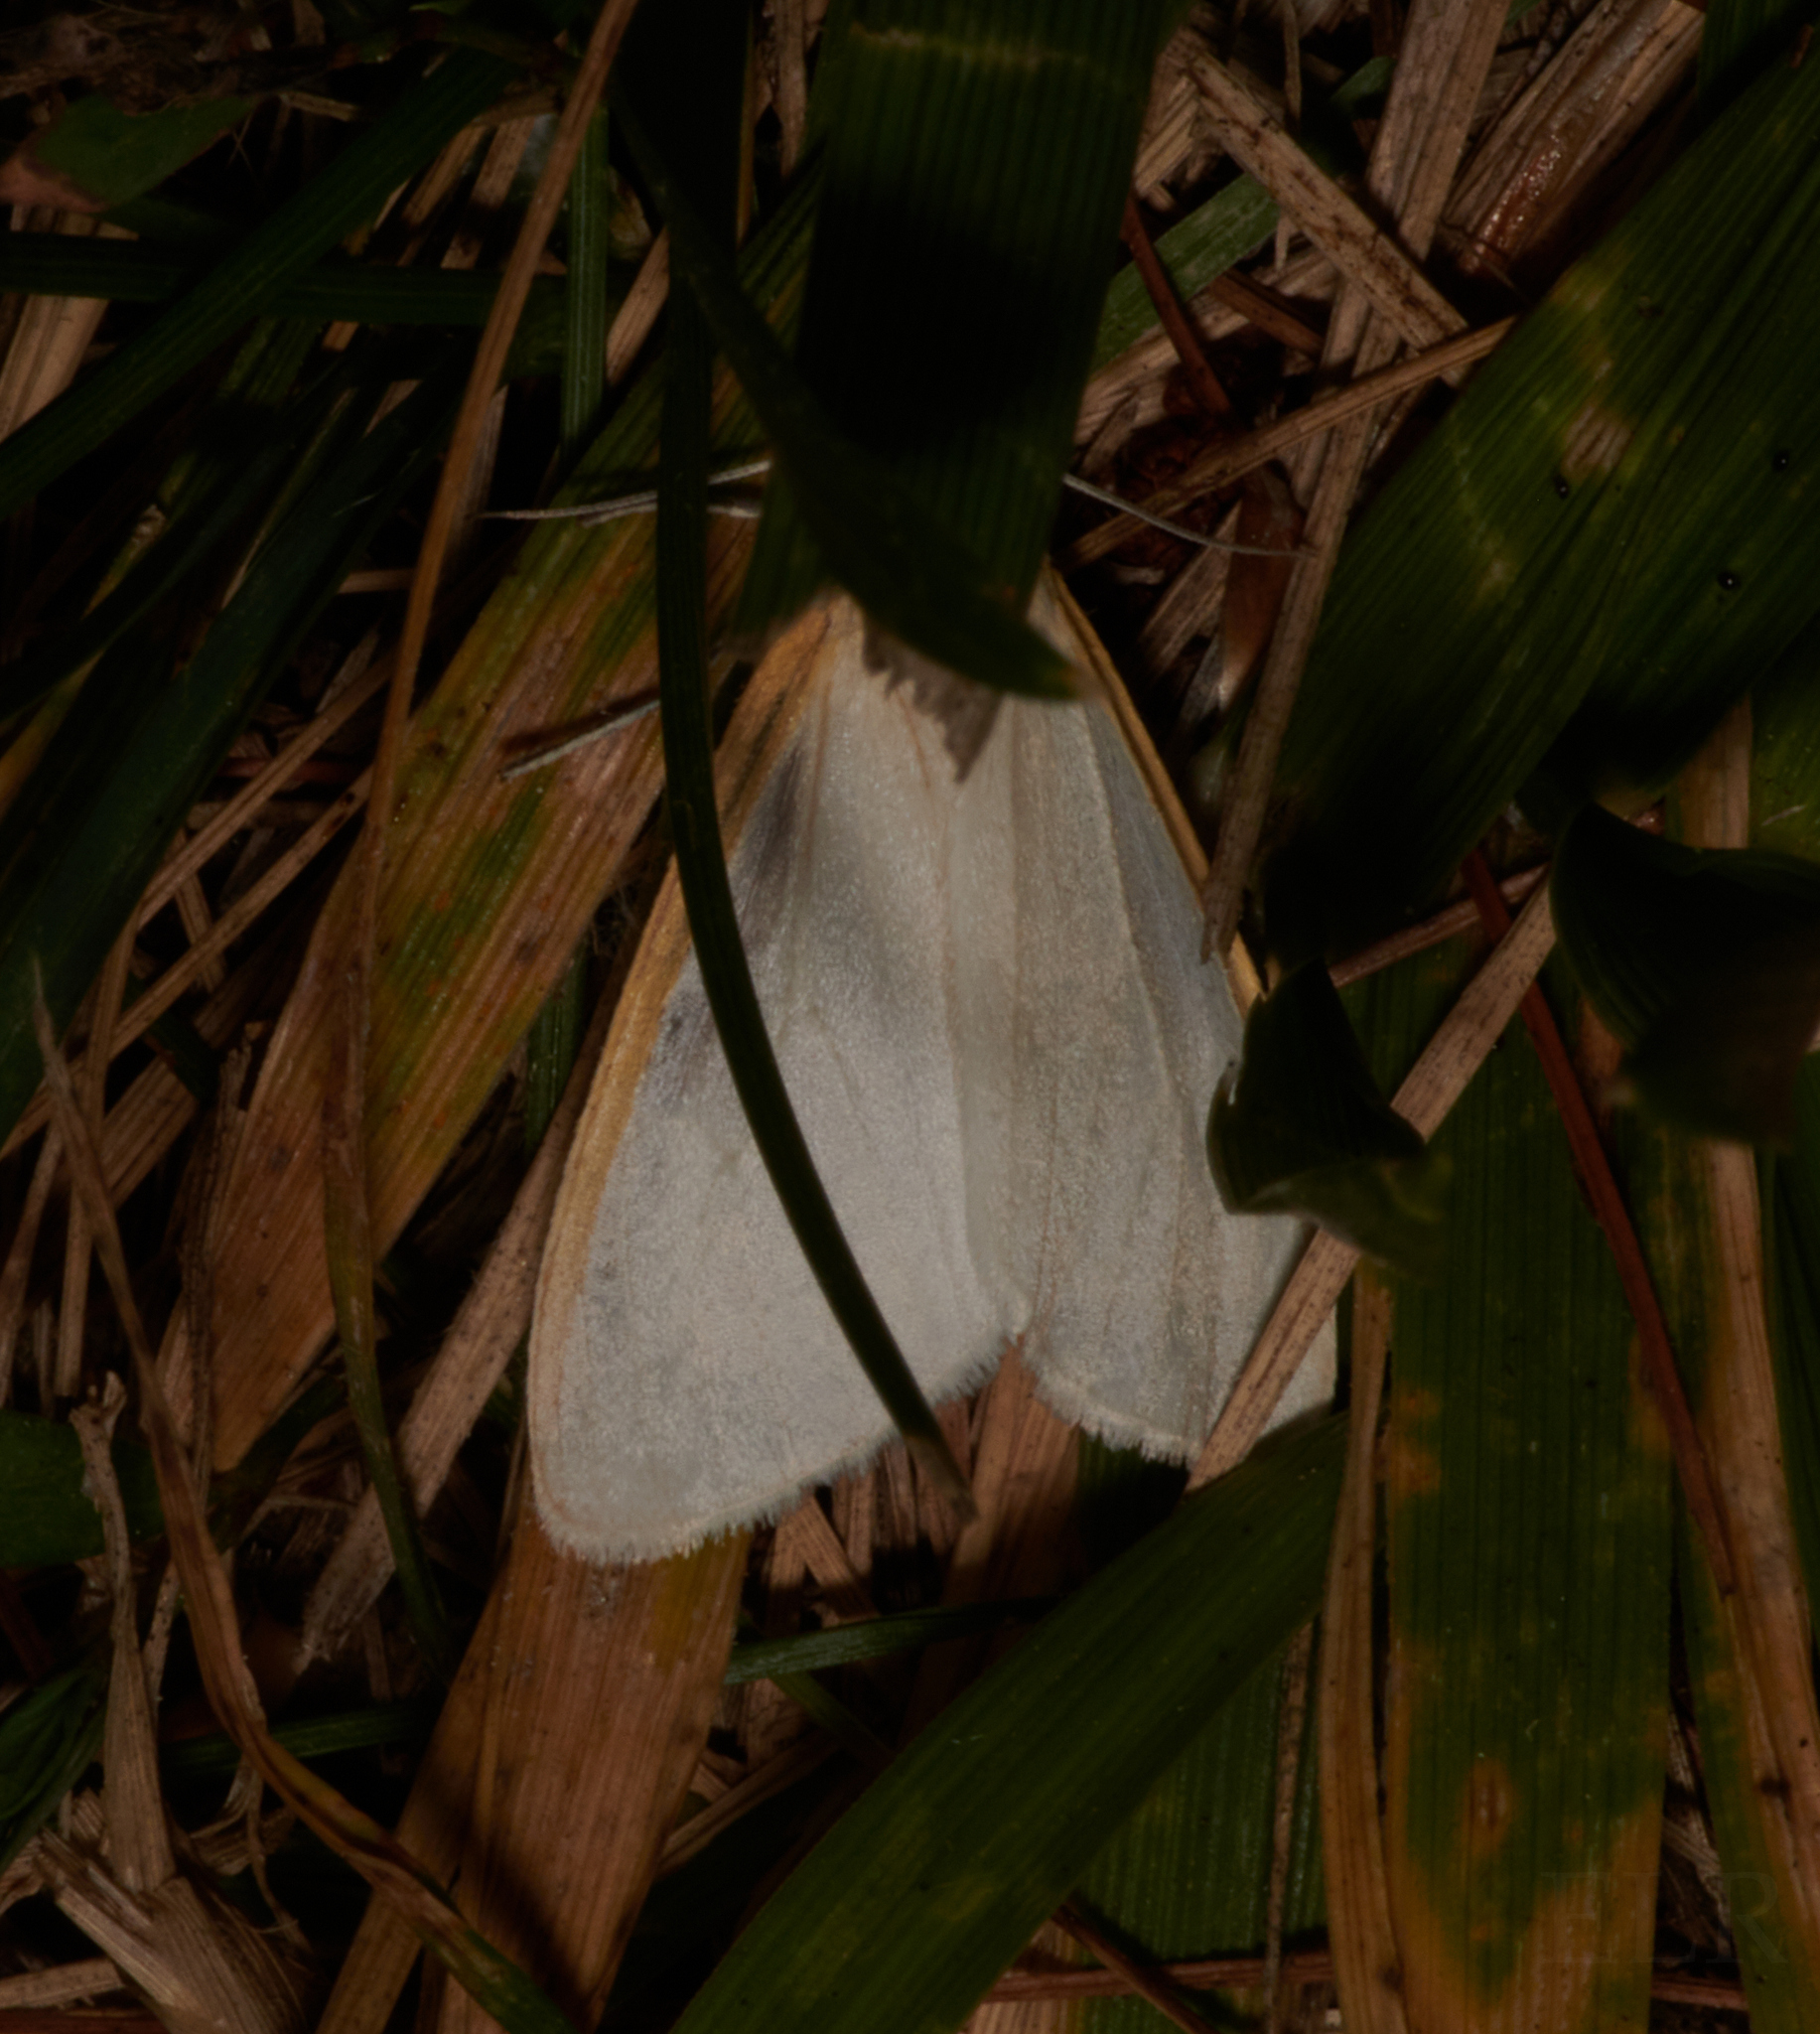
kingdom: Animalia
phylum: Arthropoda
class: Insecta
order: Lepidoptera
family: Erebidae
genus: Cycnia
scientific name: Cycnia tenera
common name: Delicate cycnia moth
